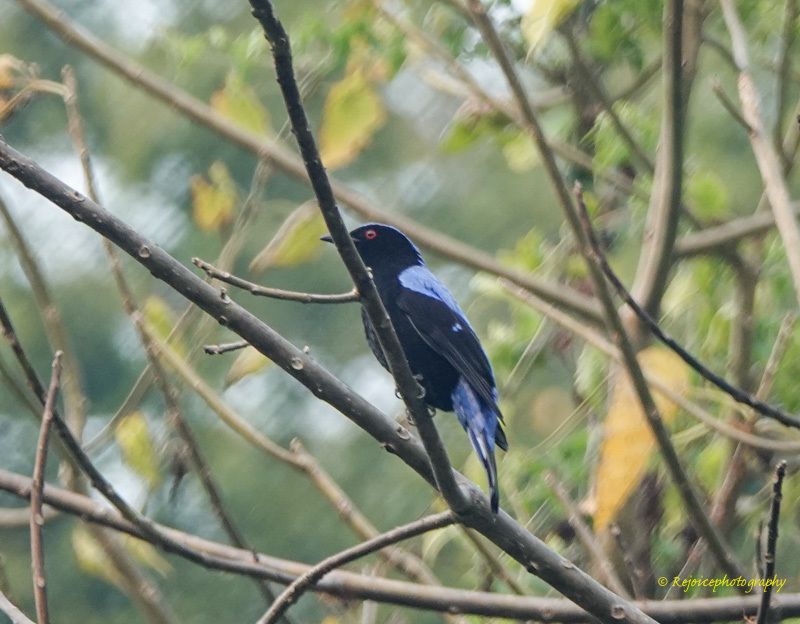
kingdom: Animalia
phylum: Chordata
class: Aves
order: Passeriformes
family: Irenidae
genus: Irena
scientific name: Irena puella
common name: Asian fairy-bluebird
